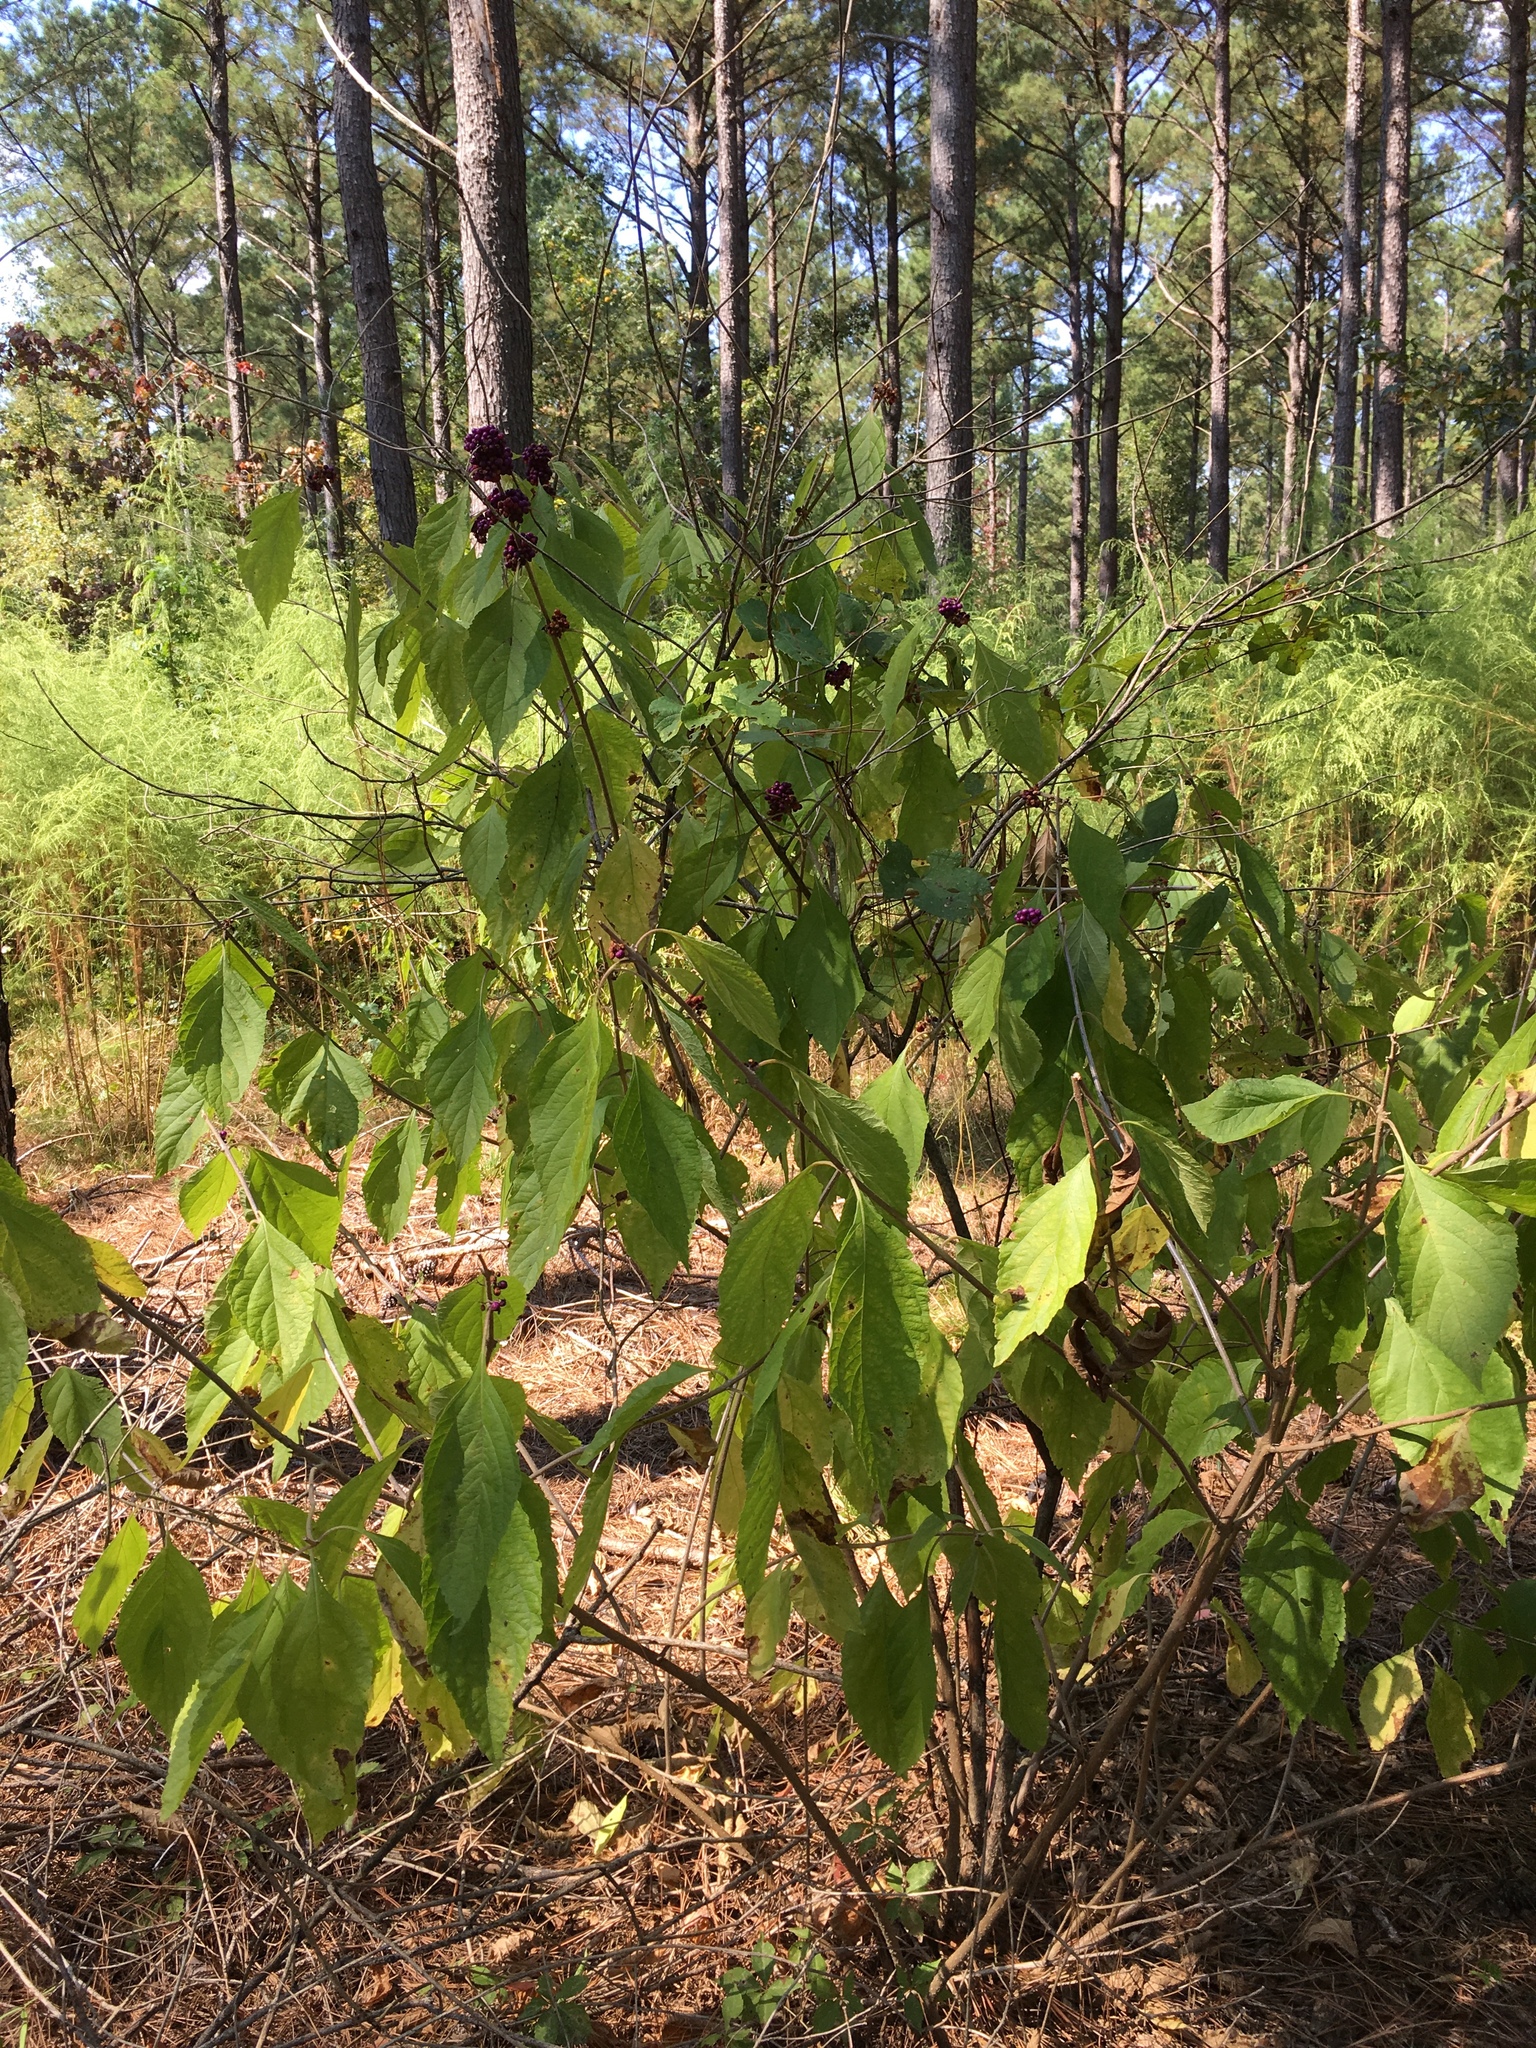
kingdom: Plantae
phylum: Tracheophyta
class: Magnoliopsida
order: Lamiales
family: Lamiaceae
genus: Callicarpa
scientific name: Callicarpa americana
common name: American beautyberry
